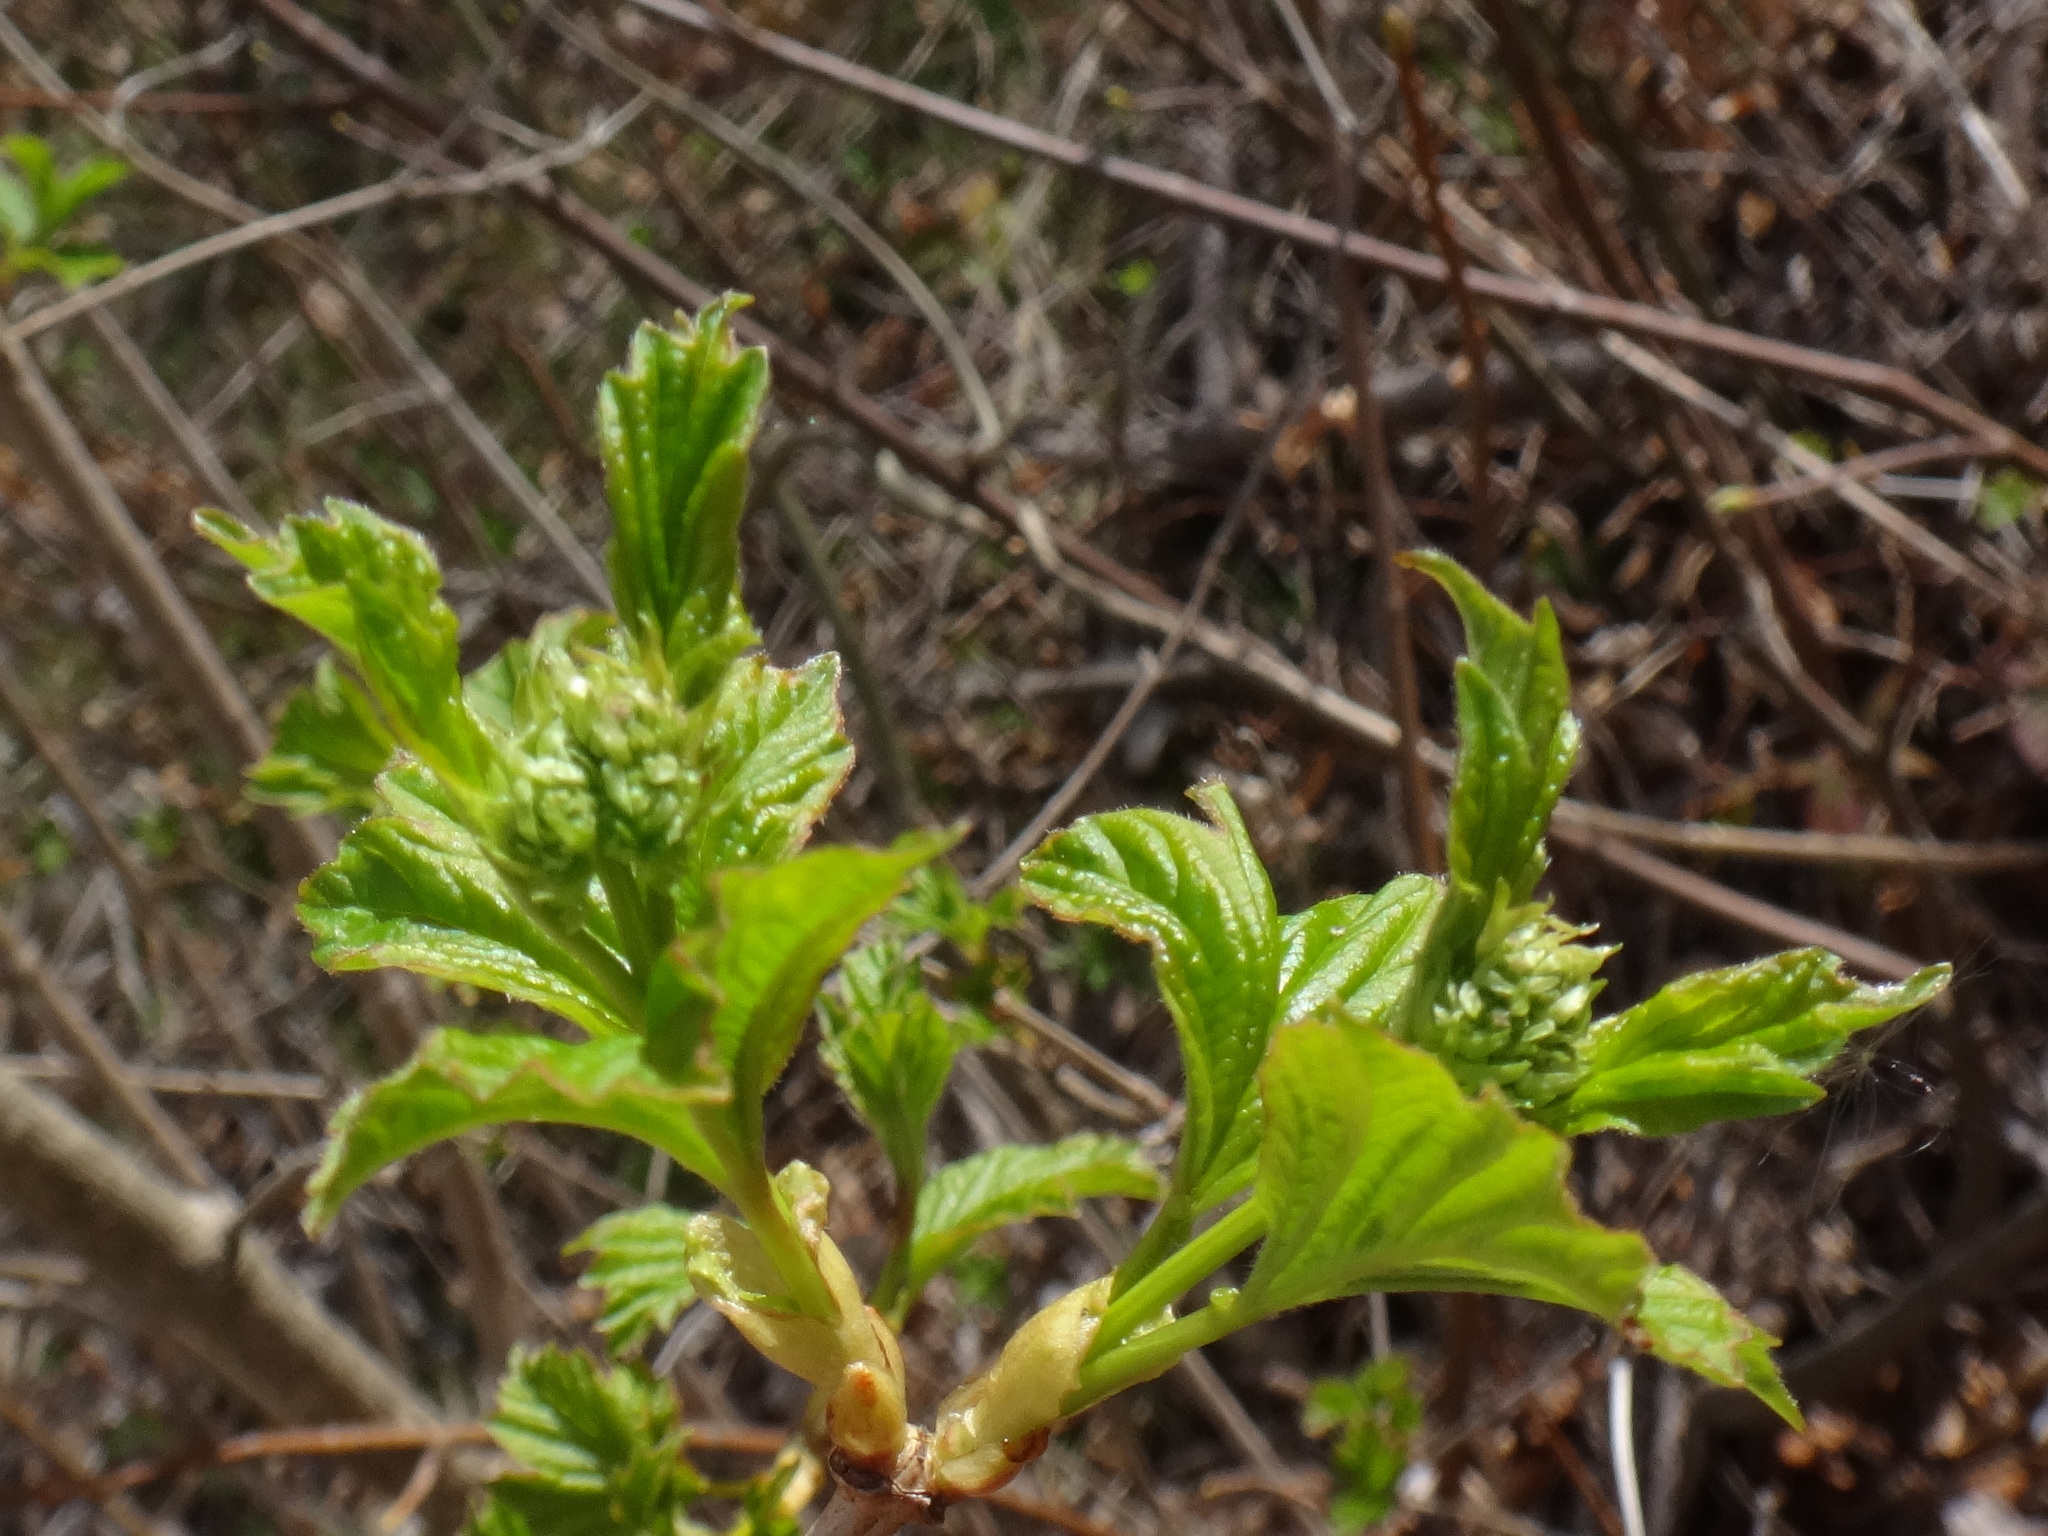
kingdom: Plantae
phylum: Tracheophyta
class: Magnoliopsida
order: Dipsacales
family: Viburnaceae
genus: Viburnum
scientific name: Viburnum opulus
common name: Guelder-rose
